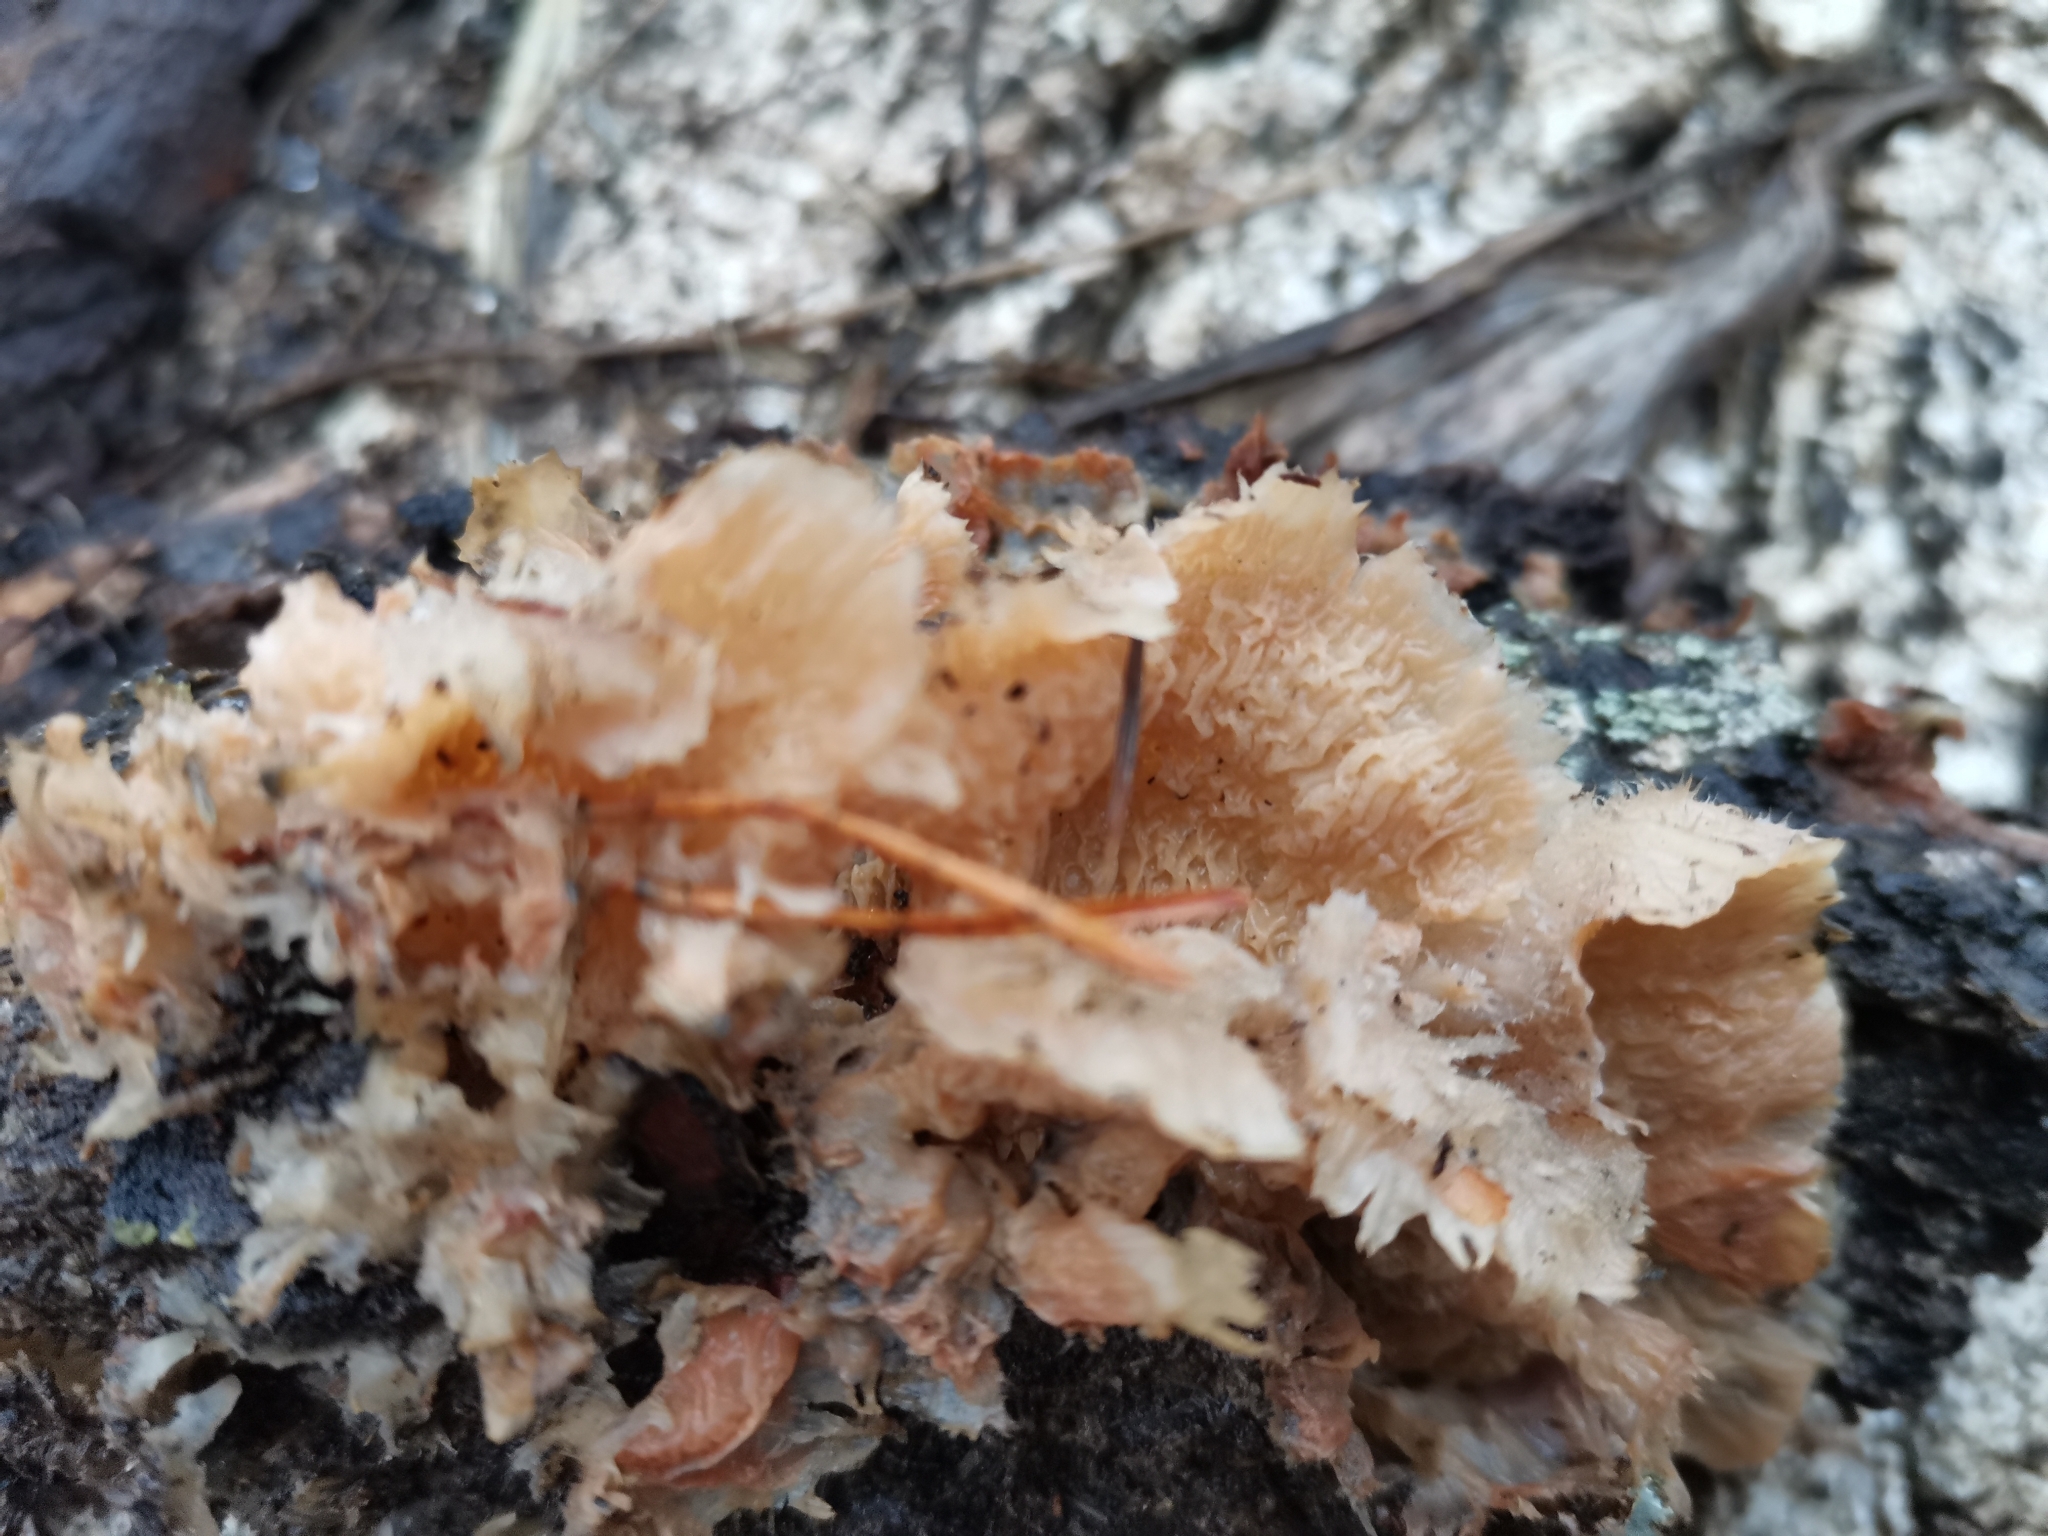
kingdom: Fungi
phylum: Basidiomycota
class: Agaricomycetes
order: Polyporales
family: Meruliaceae
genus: Phlebia
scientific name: Phlebia tremellosa
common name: Jelly rot
